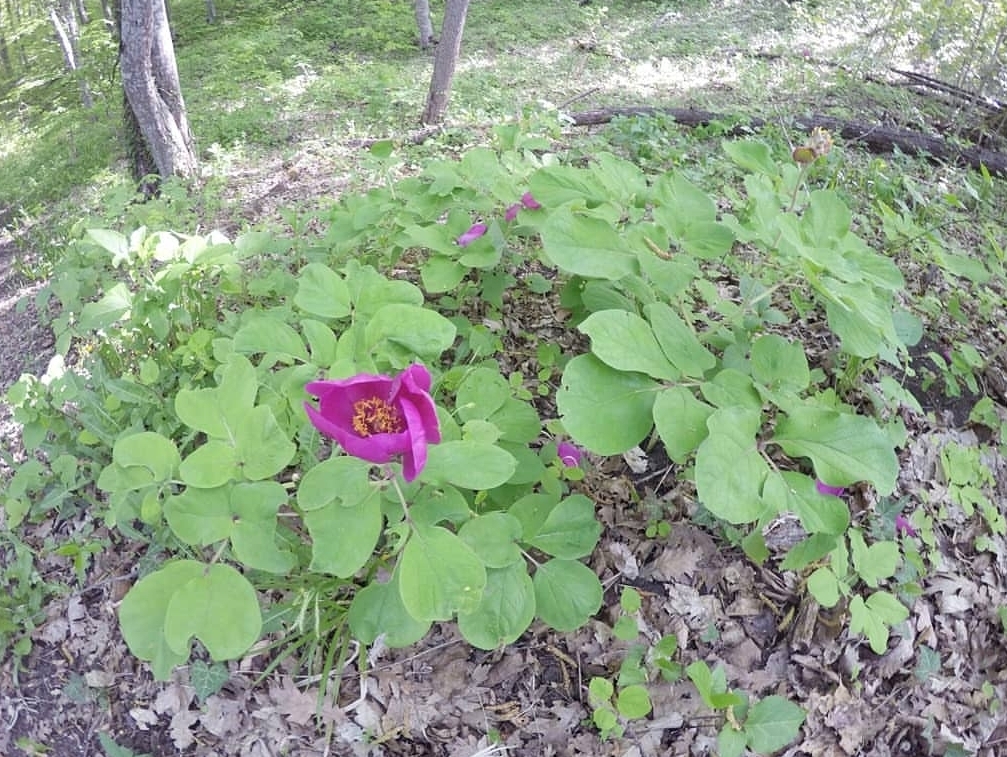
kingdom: Plantae
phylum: Tracheophyta
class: Magnoliopsida
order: Saxifragales
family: Paeoniaceae
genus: Paeonia
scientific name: Paeonia caucasica
